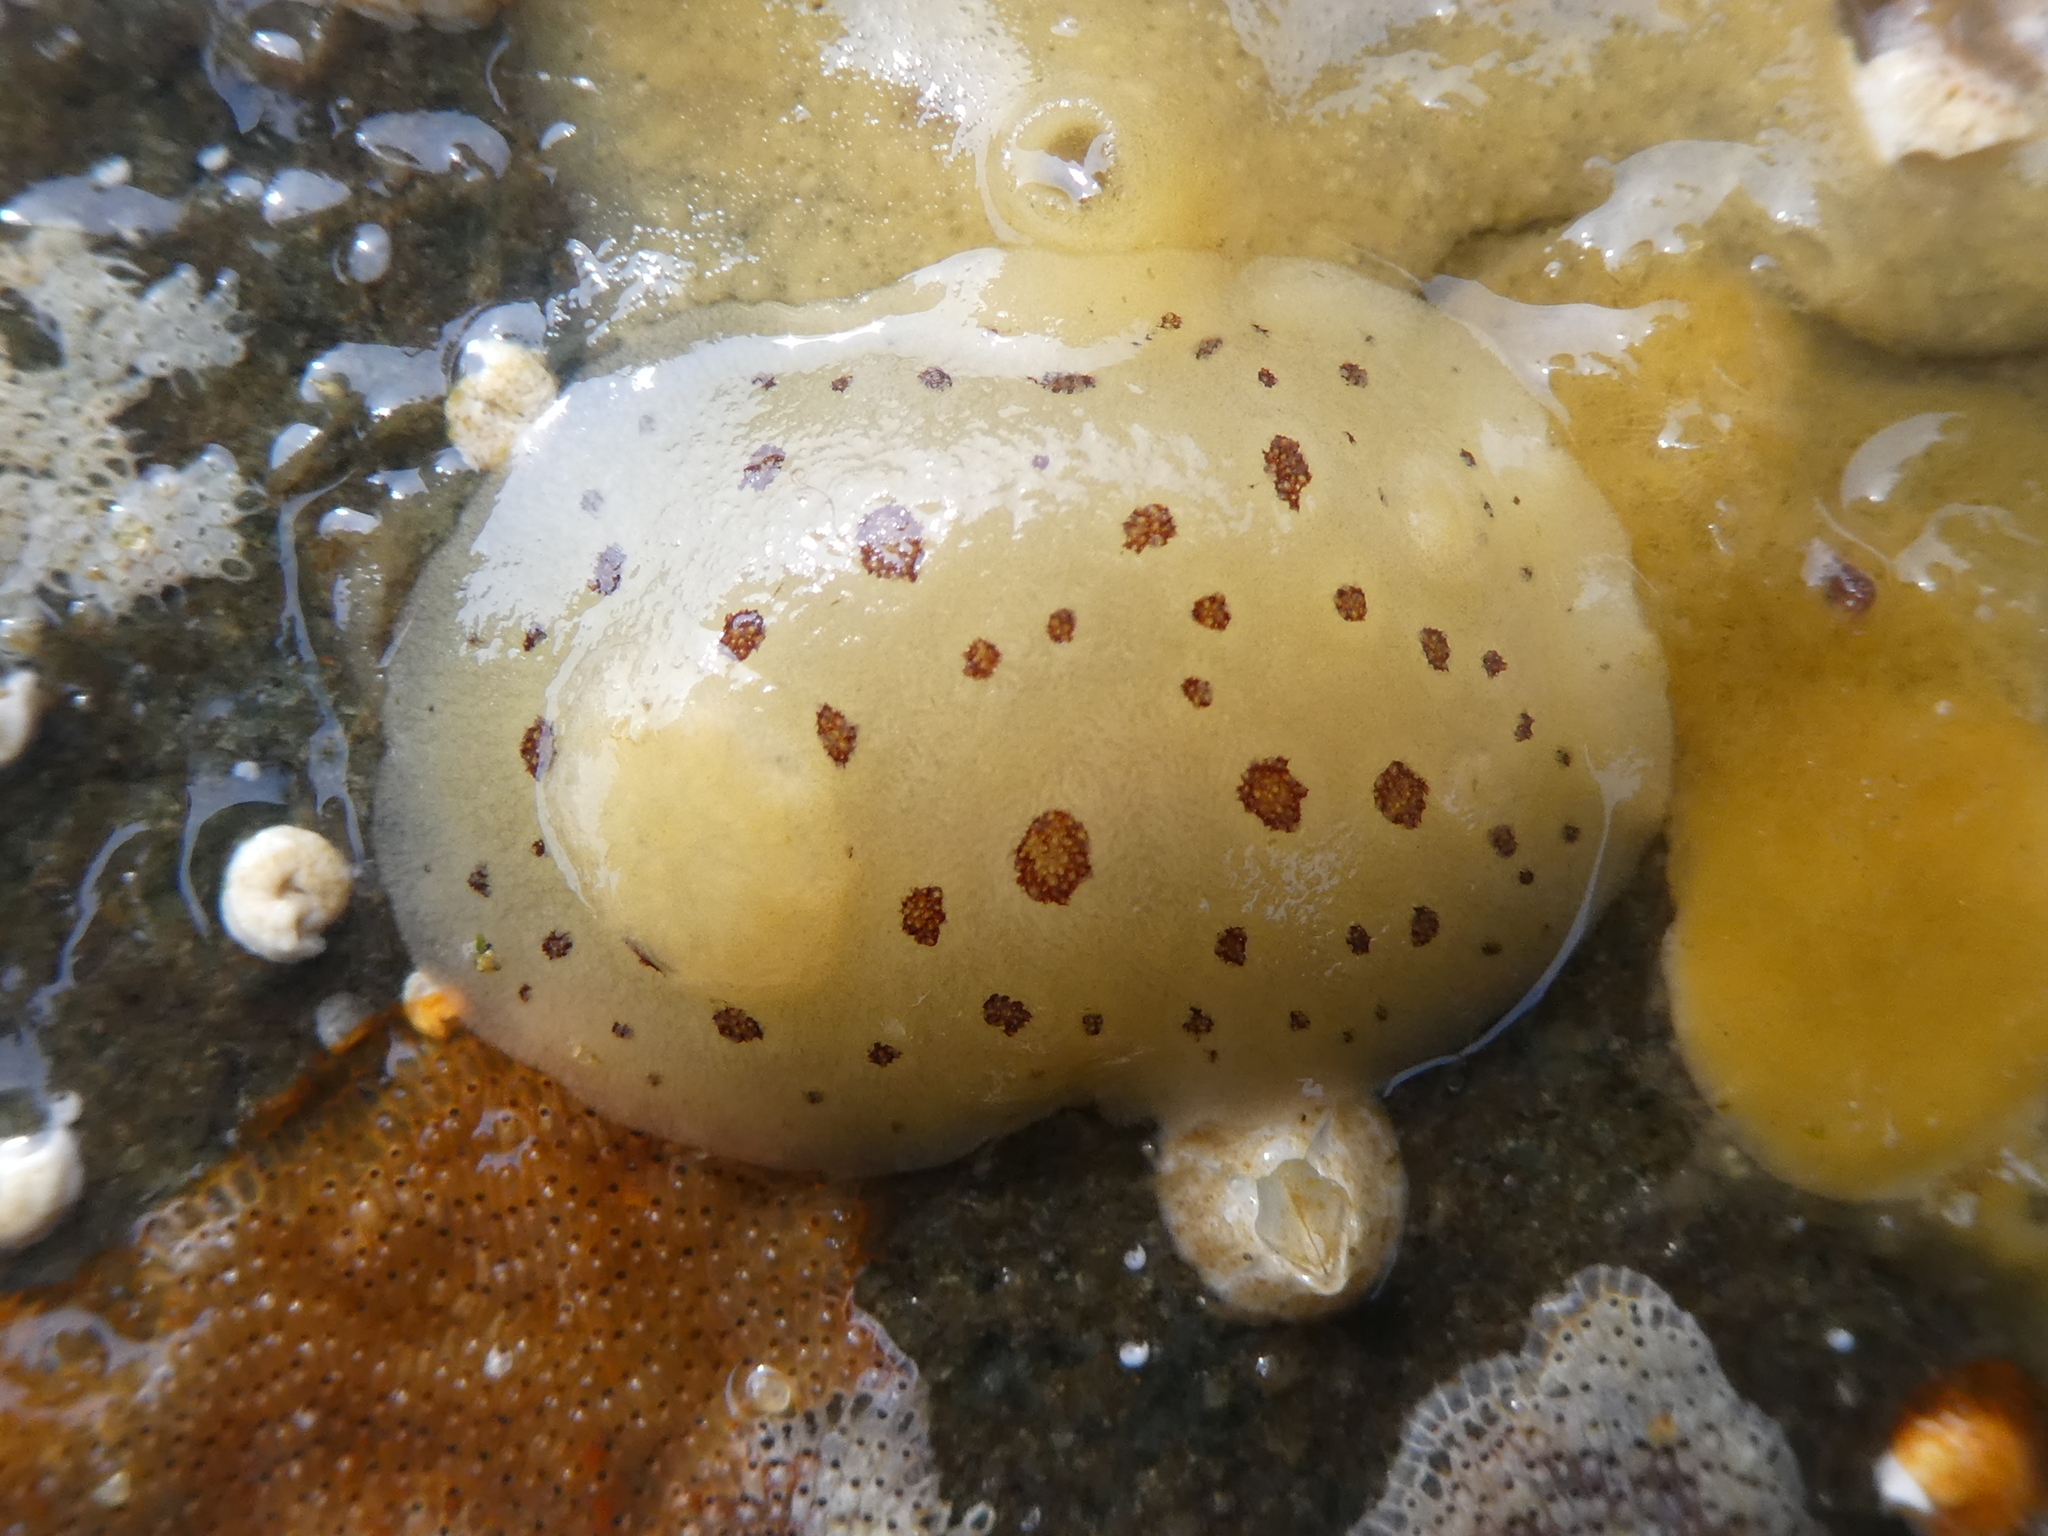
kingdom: Animalia
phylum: Mollusca
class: Gastropoda
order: Nudibranchia
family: Discodorididae
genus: Diaulula
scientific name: Diaulula odonoghuei
